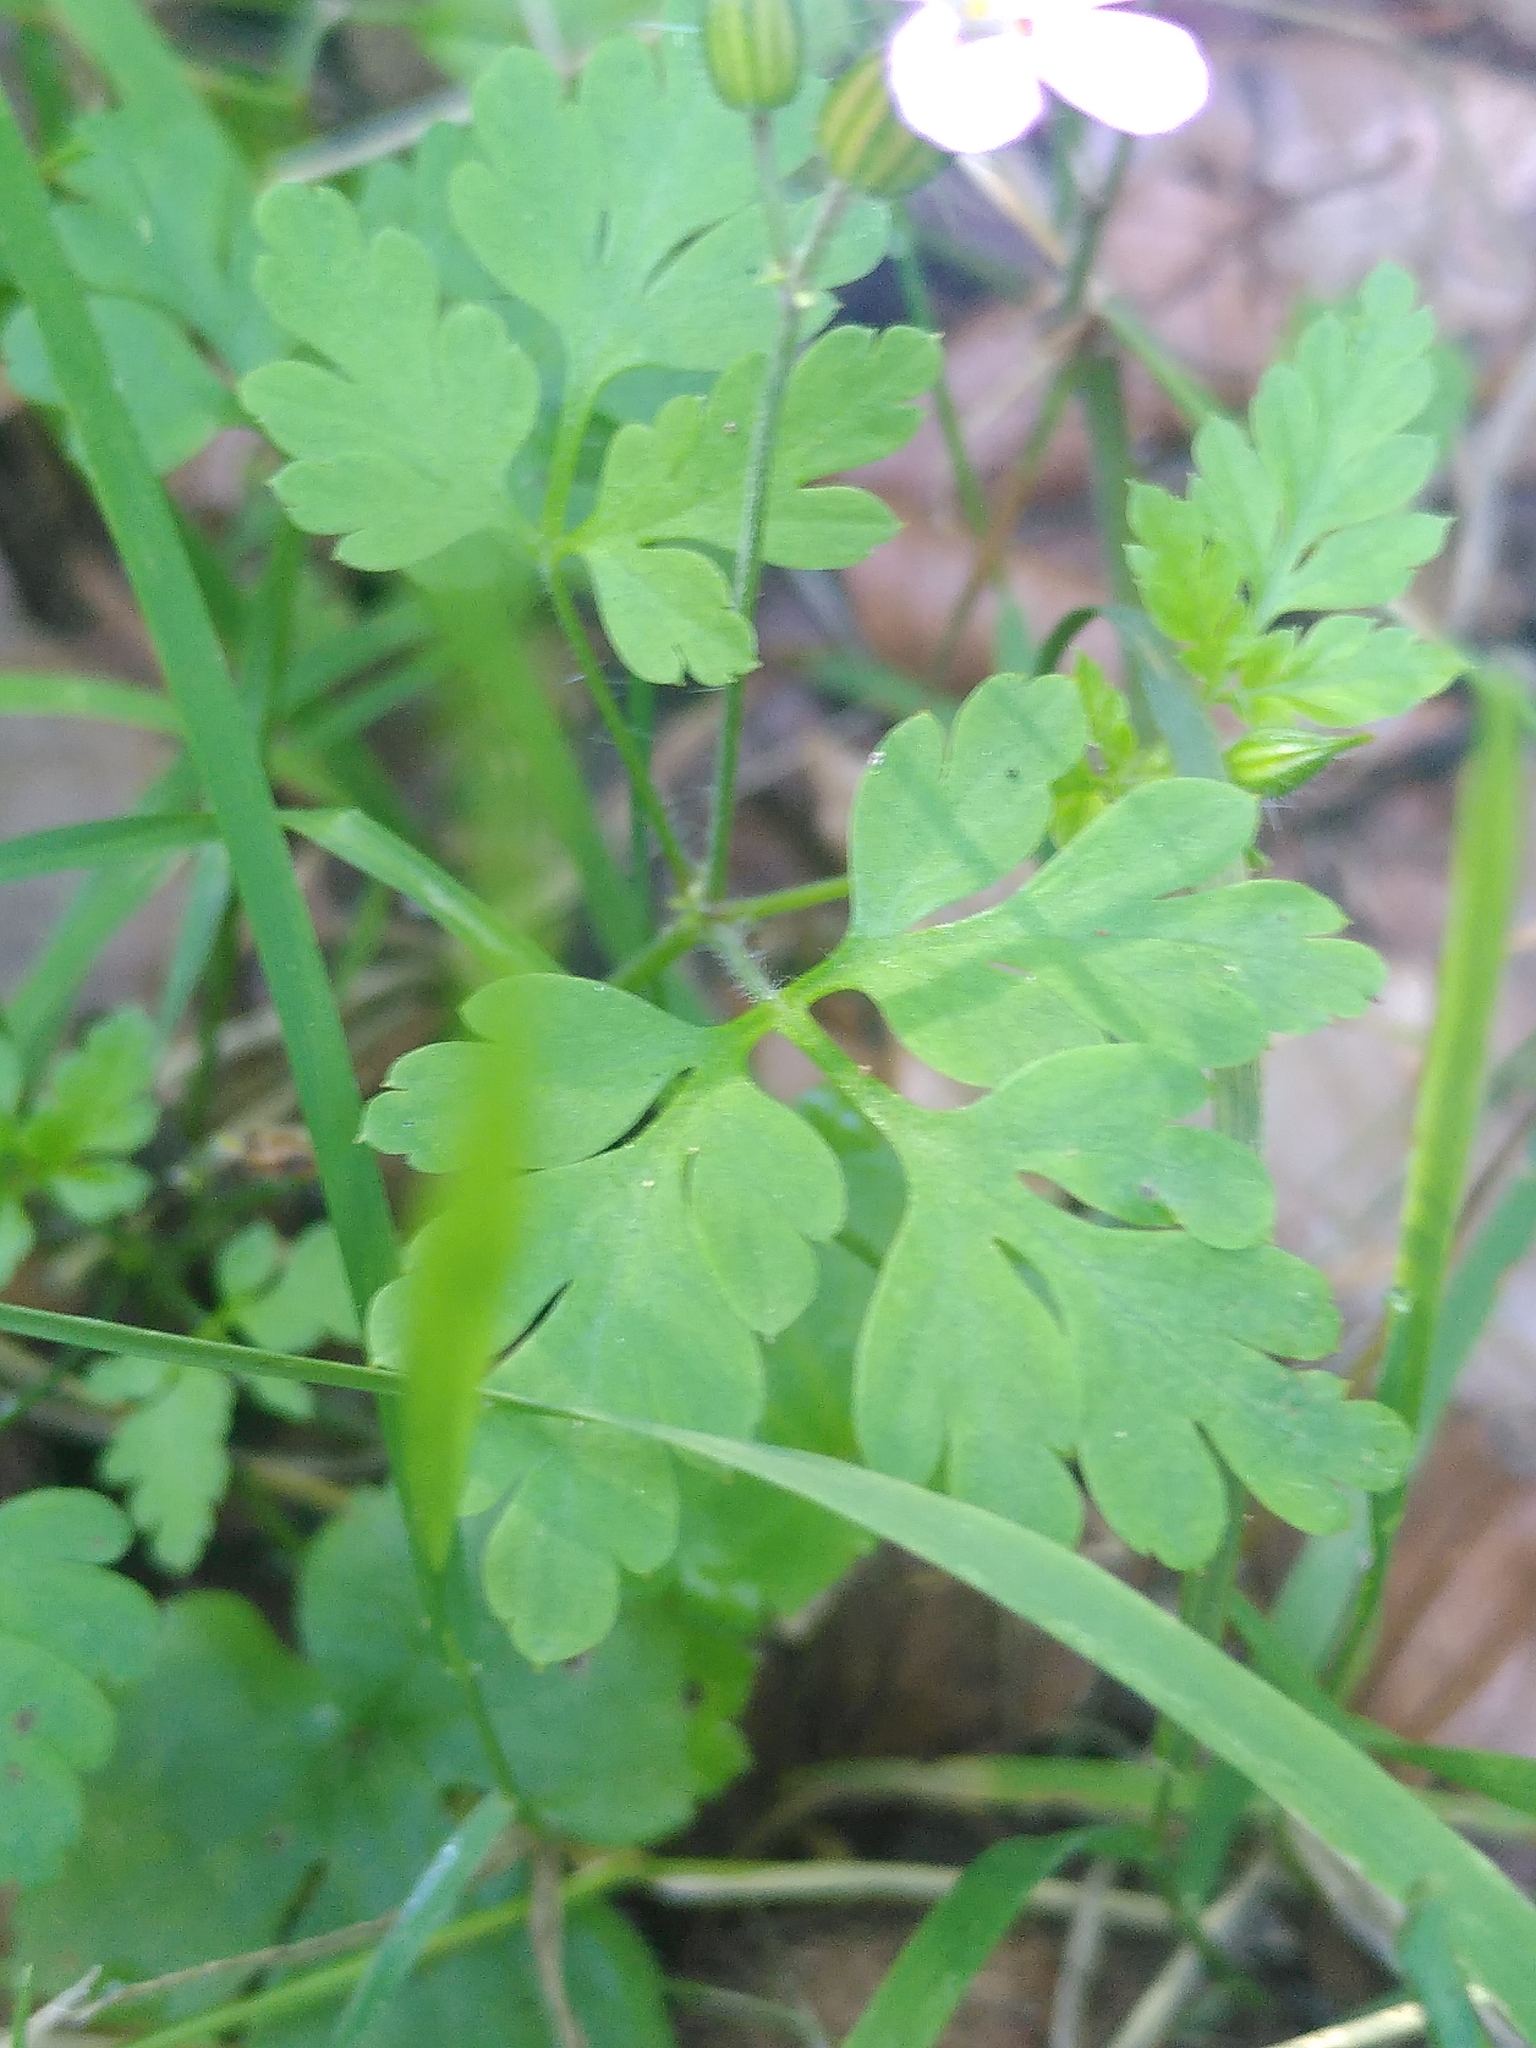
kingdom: Plantae
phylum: Tracheophyta
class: Magnoliopsida
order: Geraniales
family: Geraniaceae
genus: Geranium
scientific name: Geranium robertianum
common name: Herb-robert
